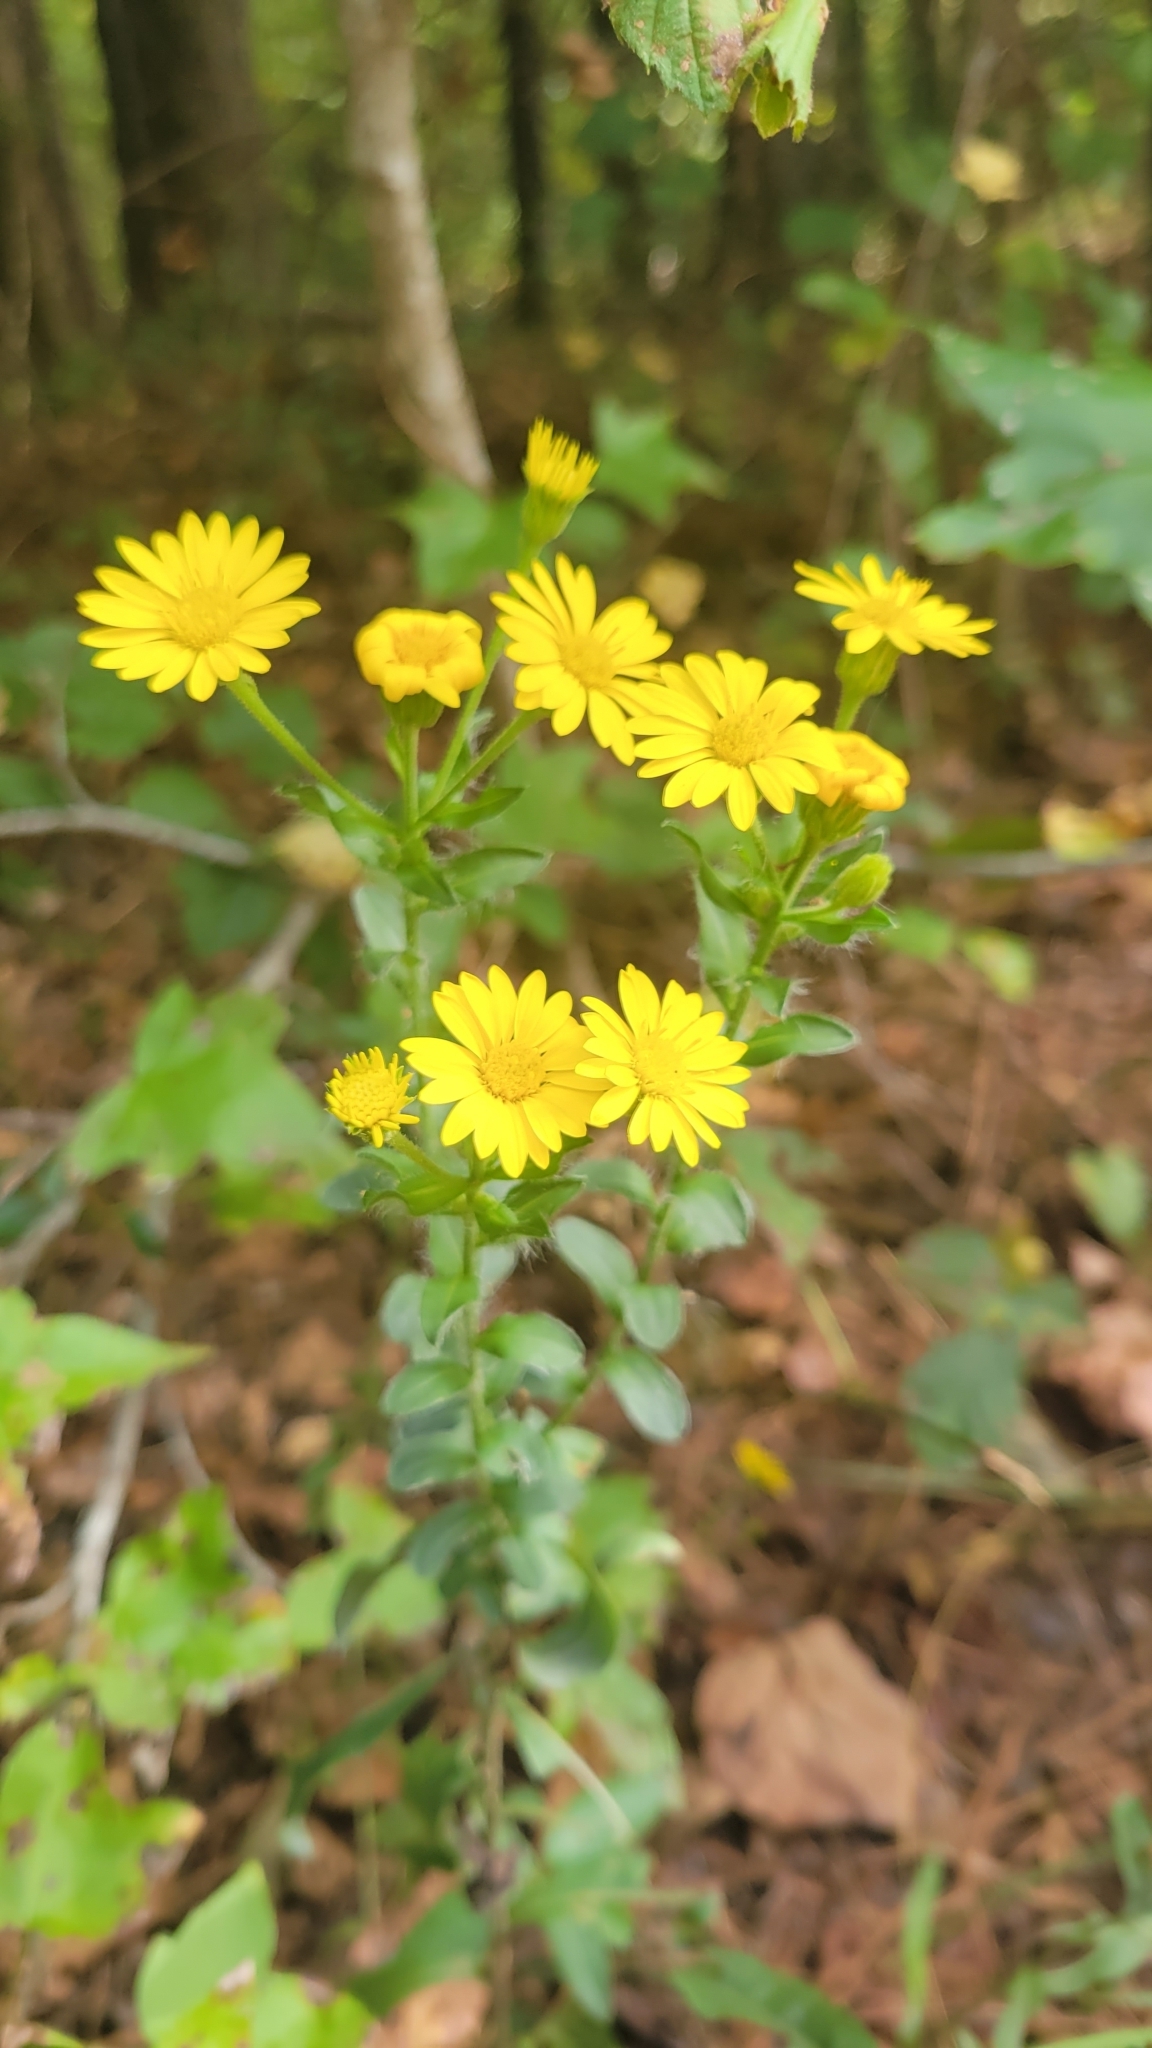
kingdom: Plantae
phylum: Tracheophyta
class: Magnoliopsida
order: Asterales
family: Asteraceae
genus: Chrysopsis
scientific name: Chrysopsis mariana
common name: Maryland golden-aster
